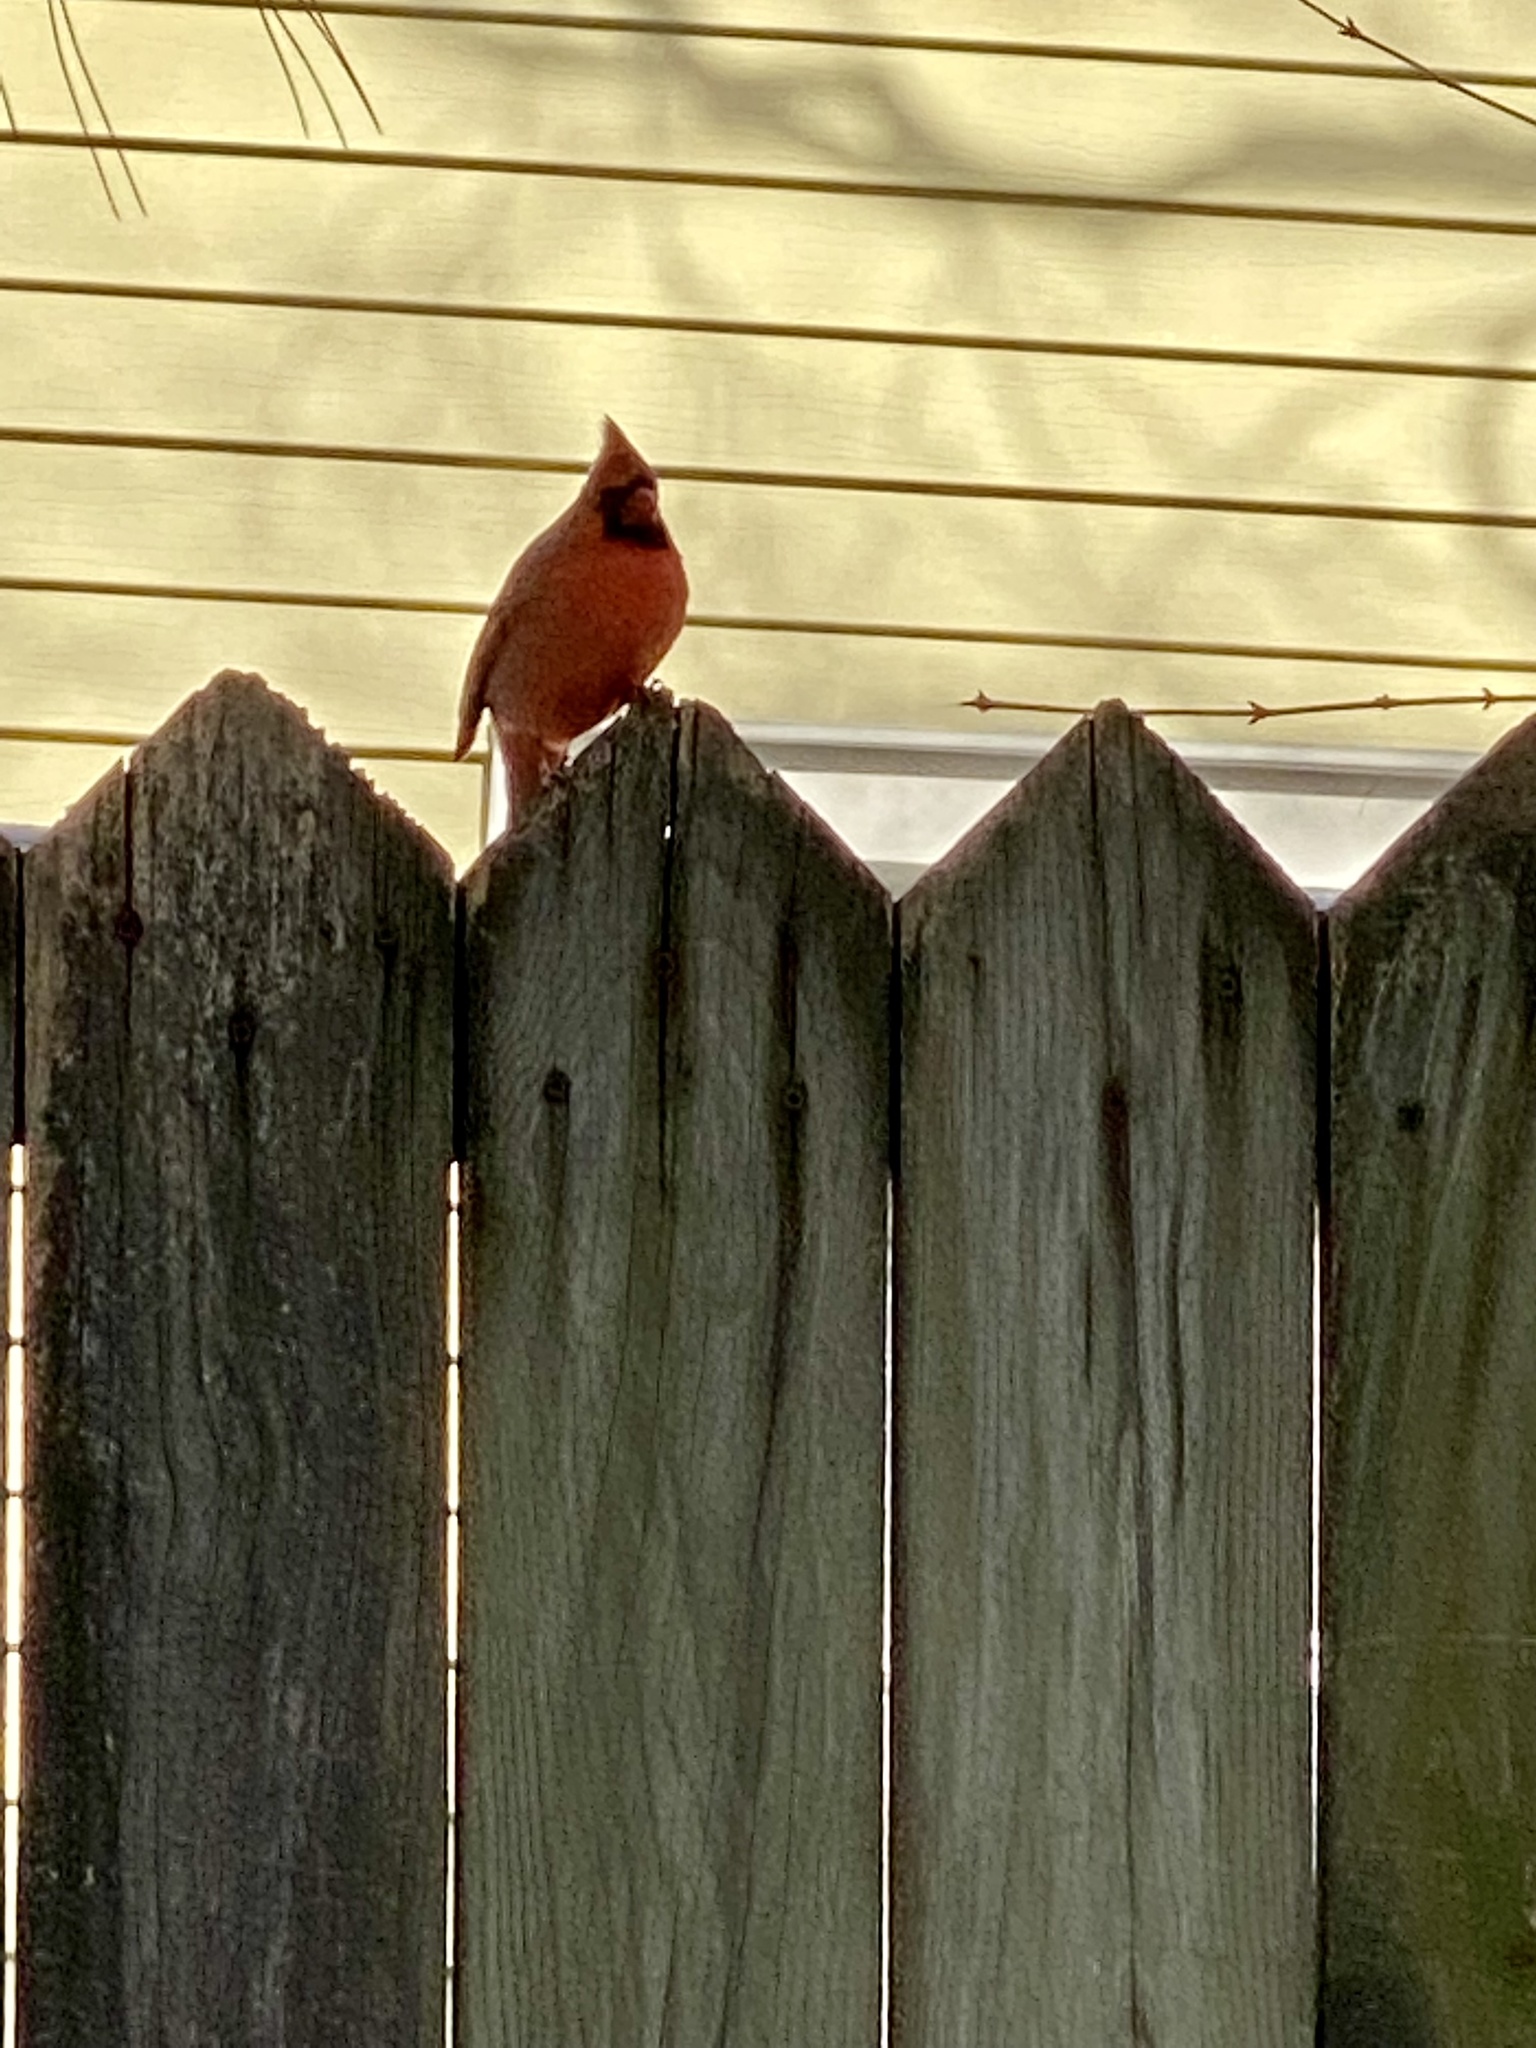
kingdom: Animalia
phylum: Chordata
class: Aves
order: Passeriformes
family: Cardinalidae
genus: Cardinalis
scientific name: Cardinalis cardinalis
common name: Northern cardinal
